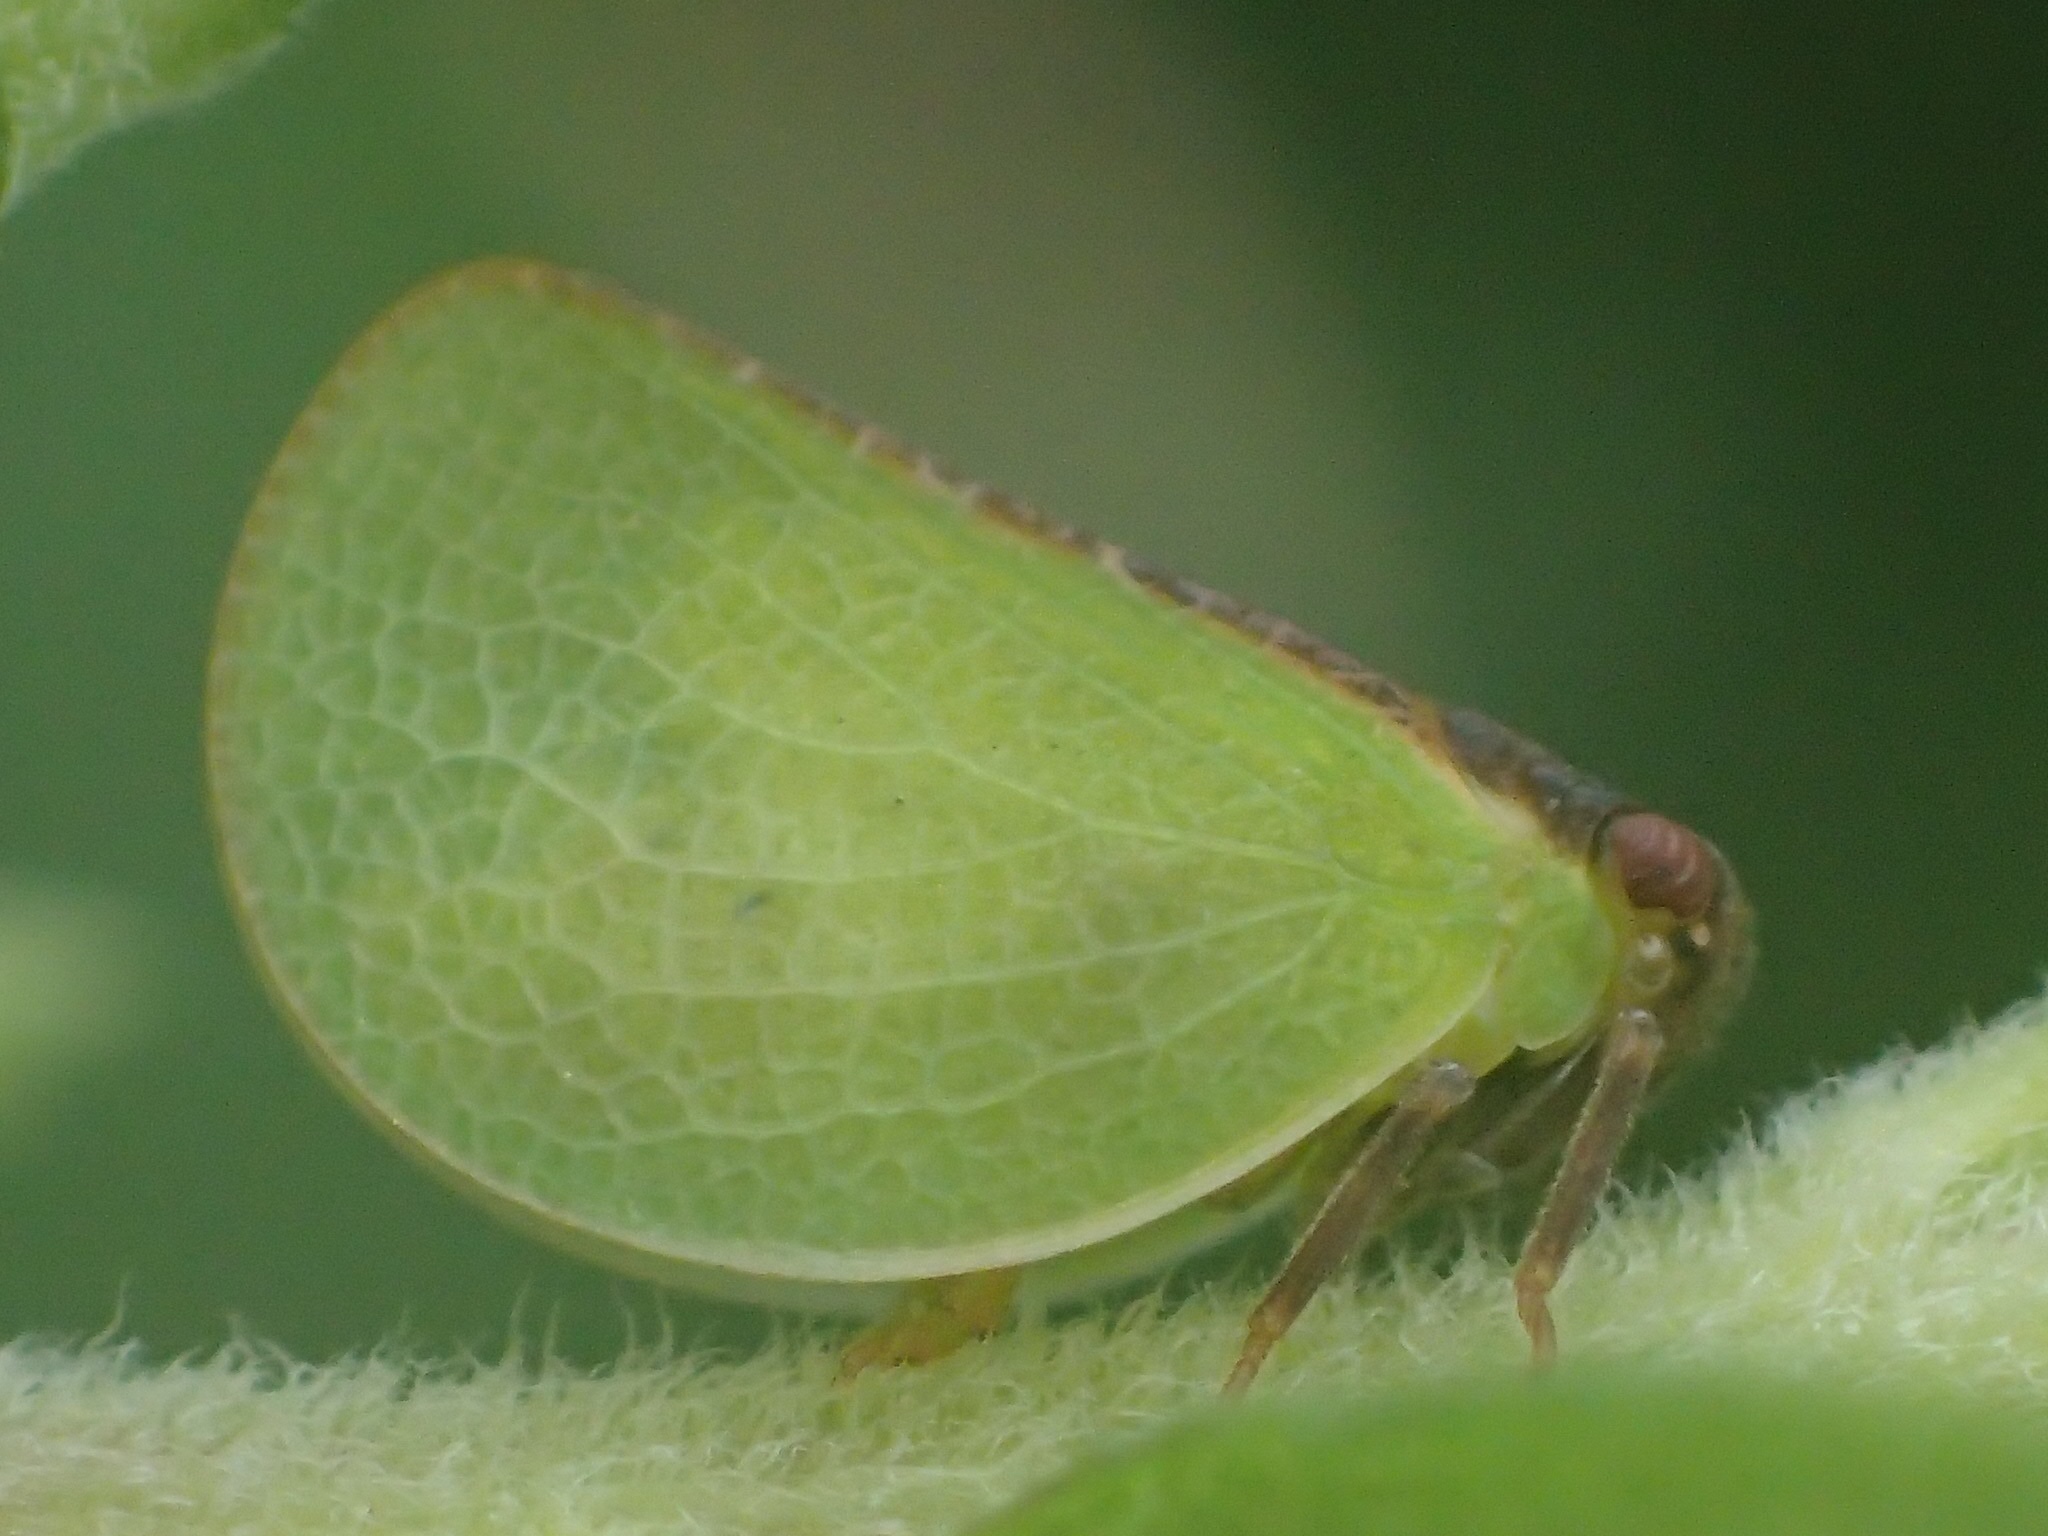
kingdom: Animalia
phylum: Arthropoda
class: Insecta
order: Hemiptera
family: Acanaloniidae
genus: Acanalonia
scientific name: Acanalonia bivittata
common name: Two-striped planthopper
